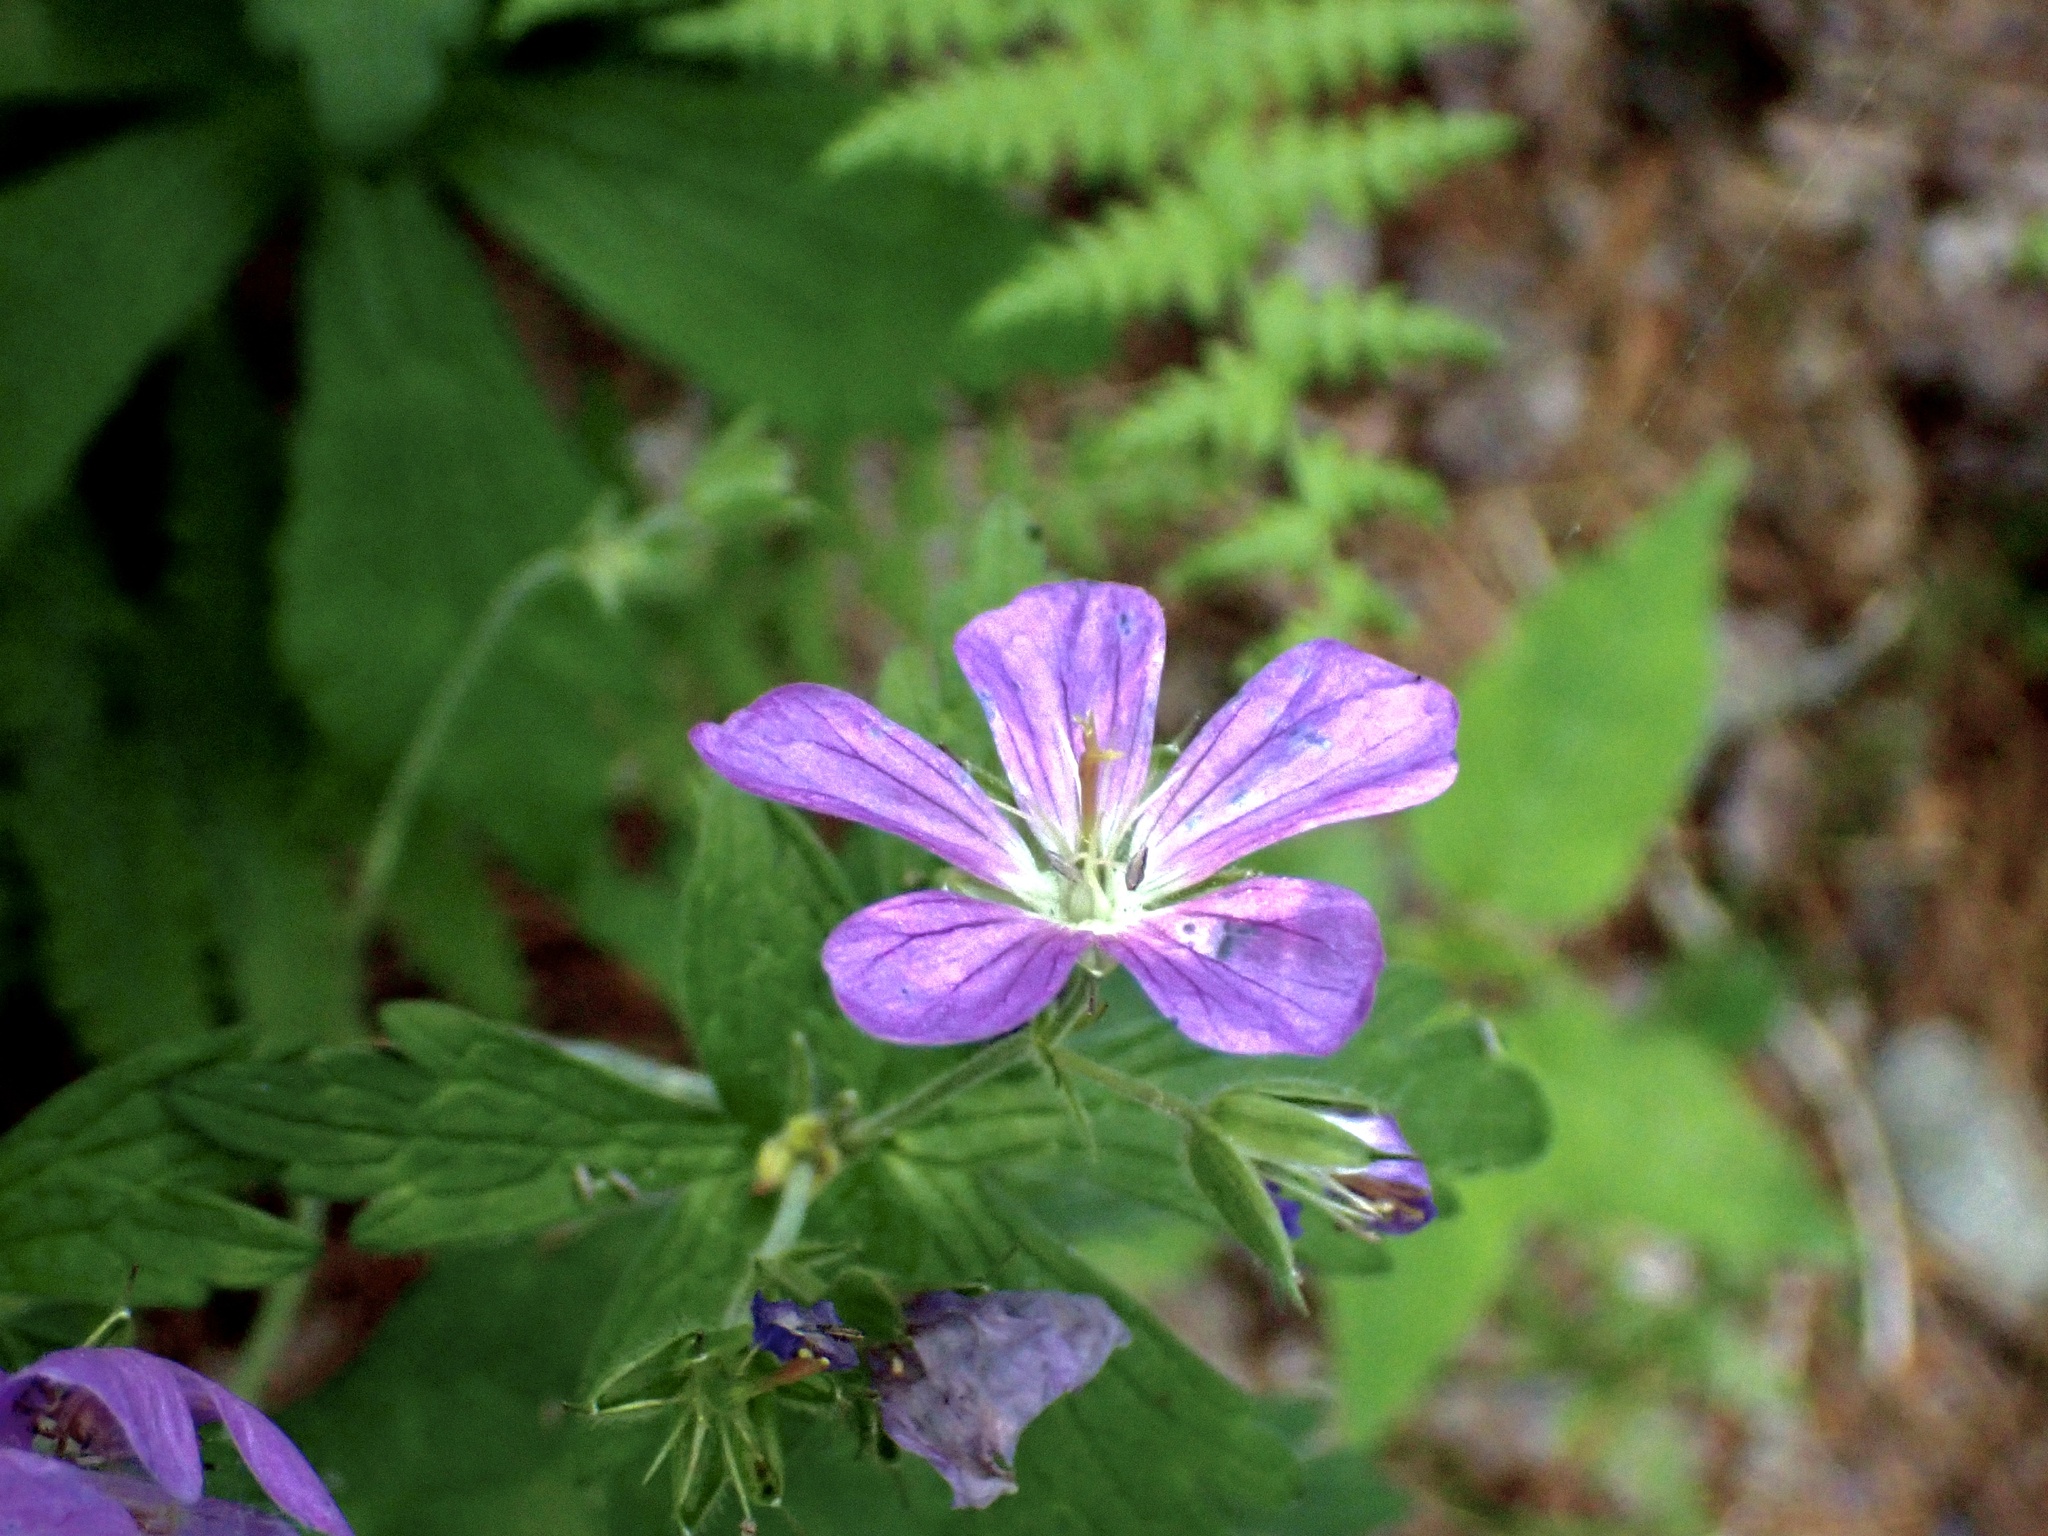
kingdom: Plantae
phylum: Tracheophyta
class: Magnoliopsida
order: Geraniales
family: Geraniaceae
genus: Geranium
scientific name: Geranium maculatum
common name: Spotted geranium
